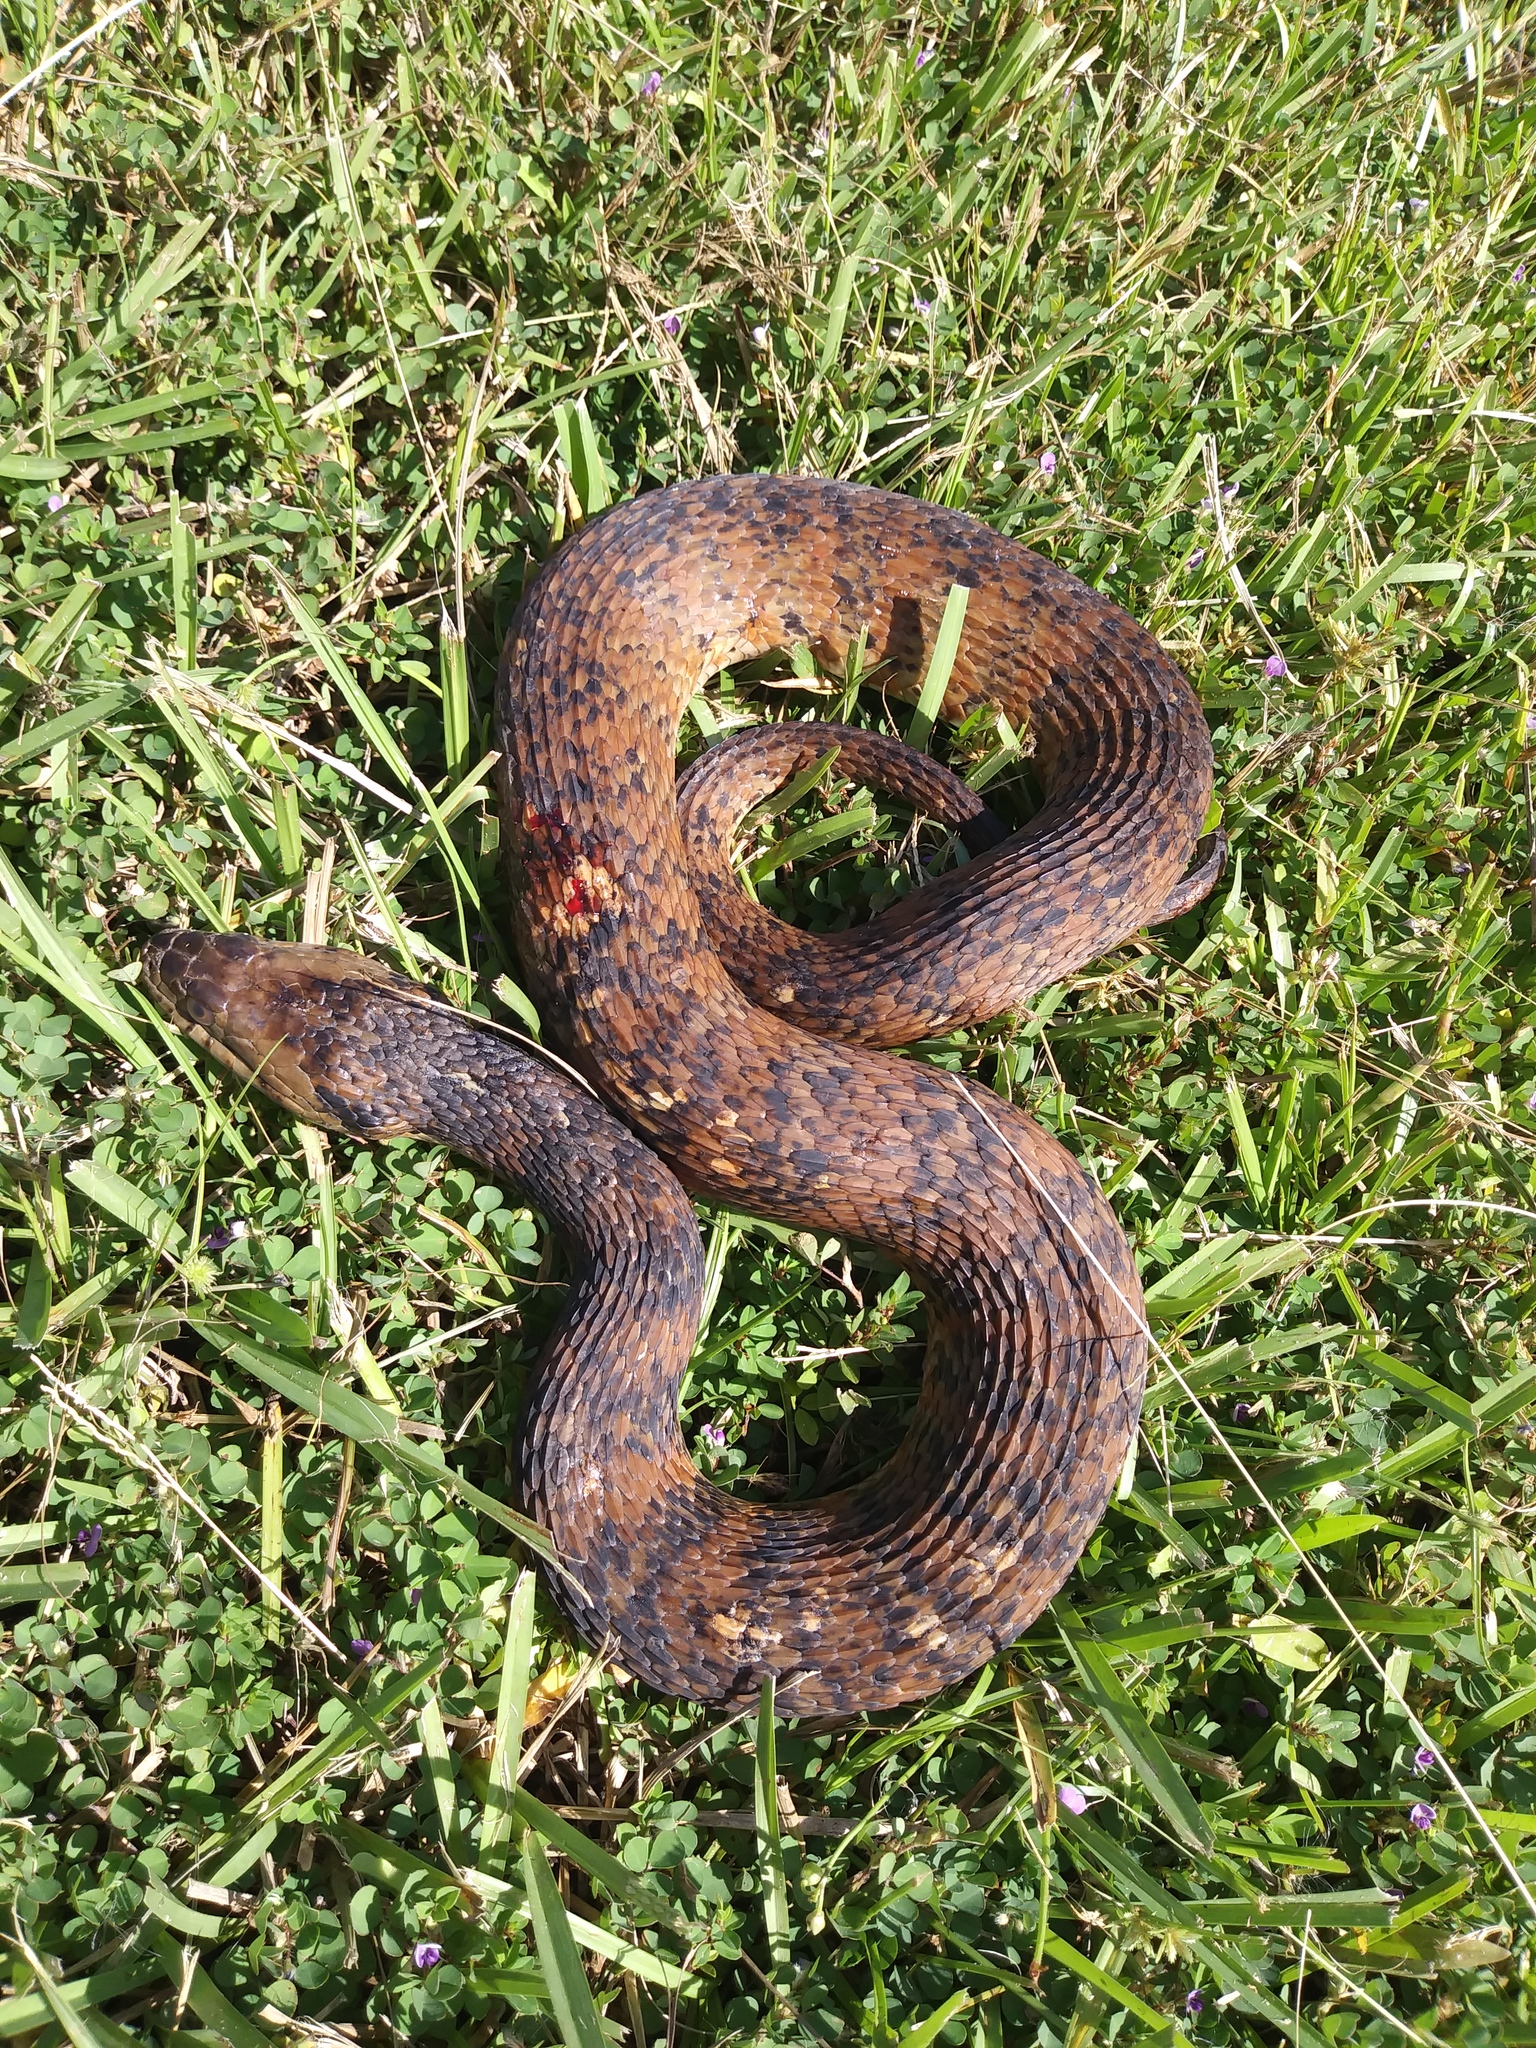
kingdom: Animalia
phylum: Chordata
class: Squamata
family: Colubridae
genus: Nerodia
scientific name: Nerodia fasciata
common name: Southern water snake
